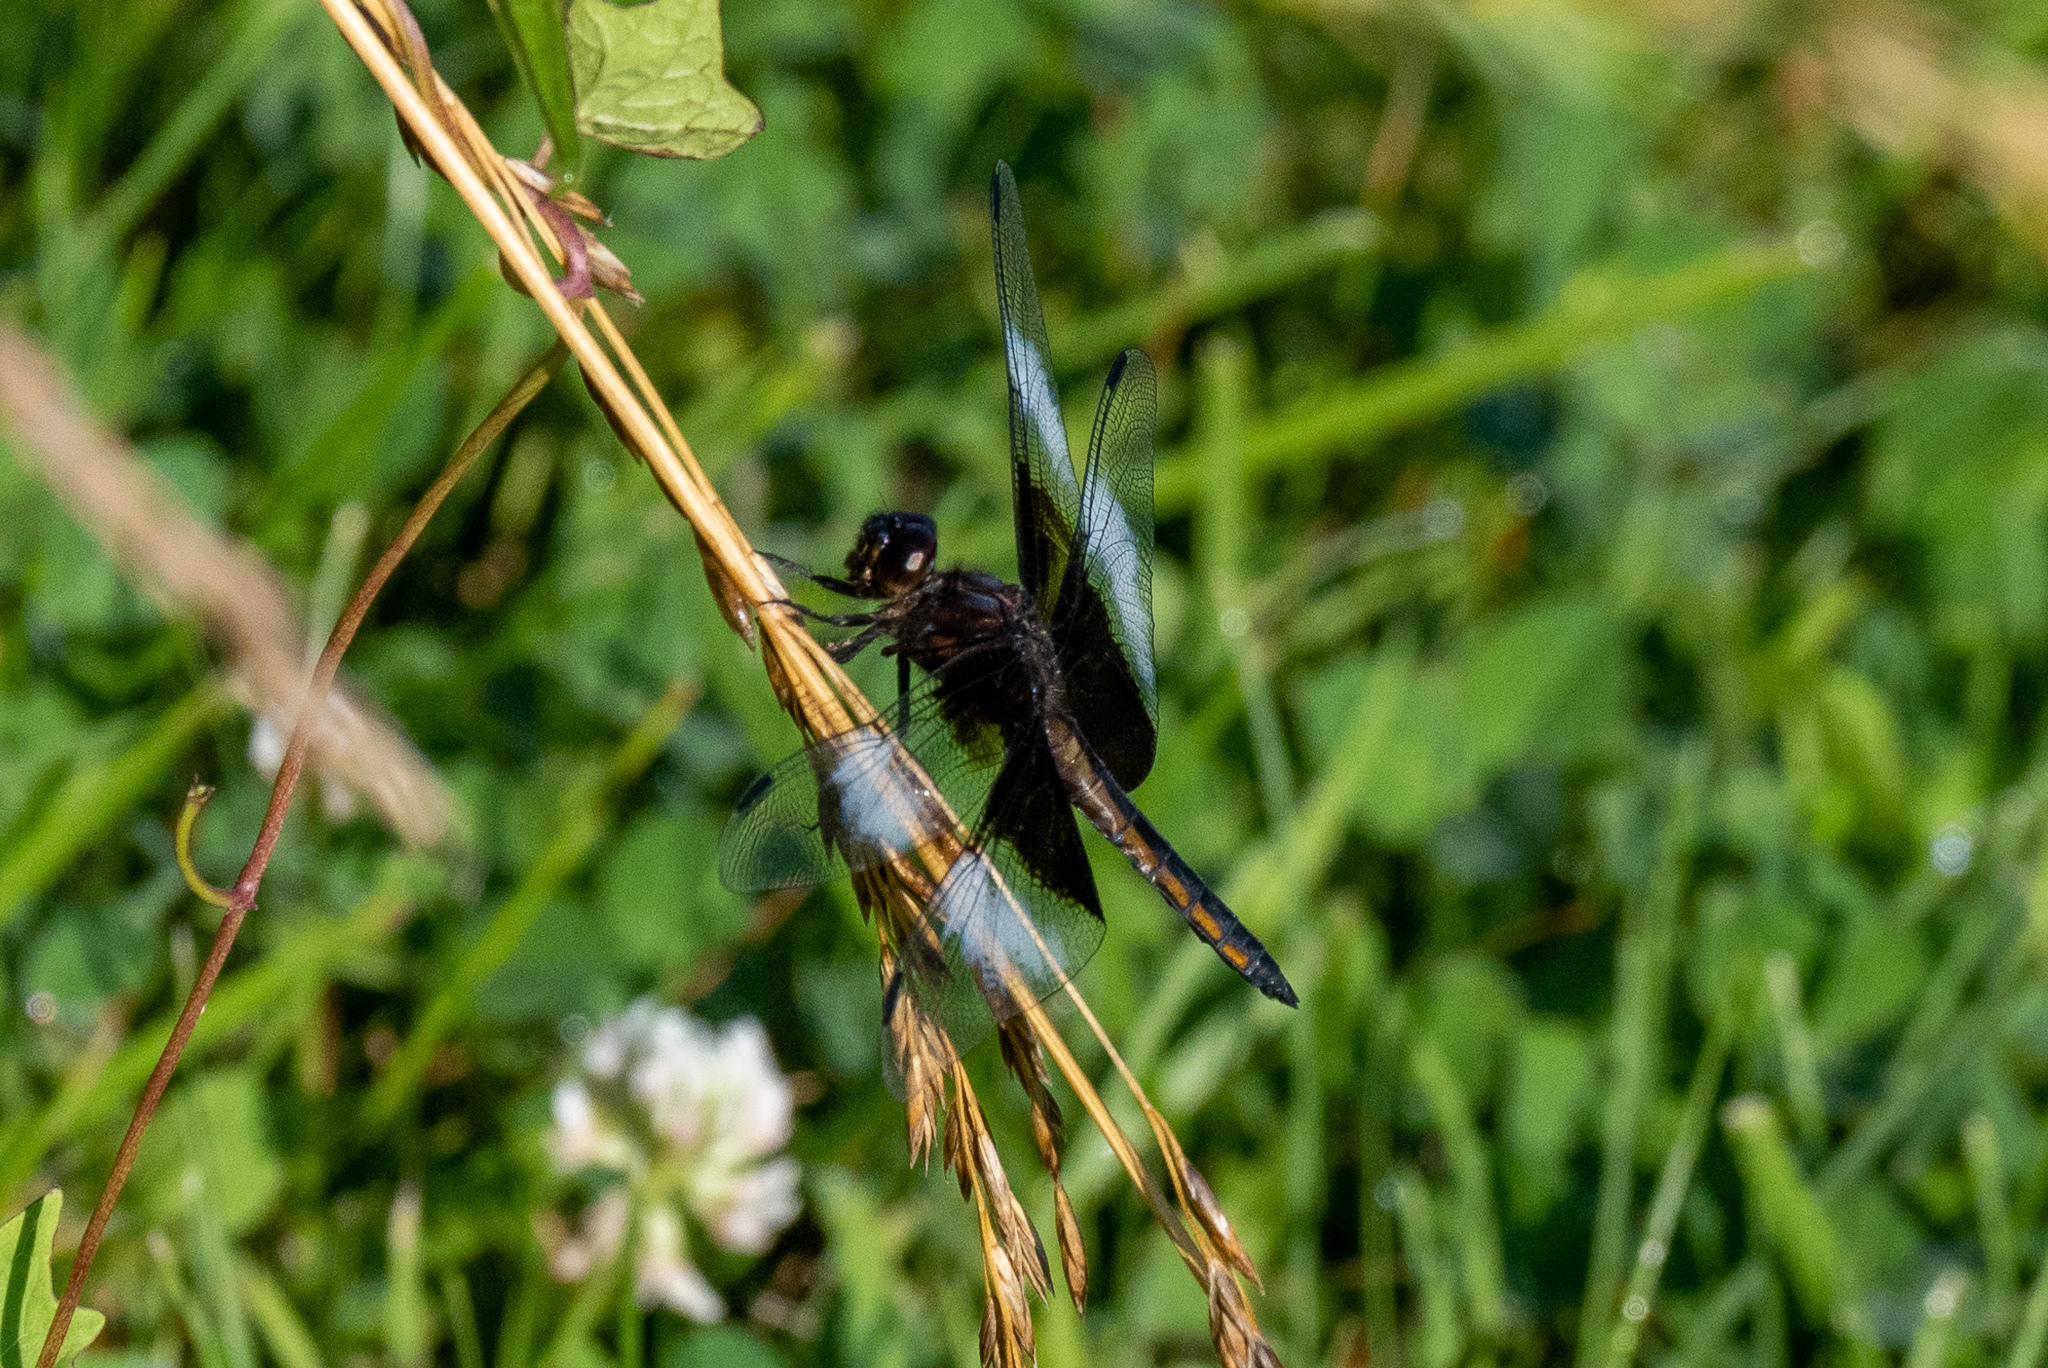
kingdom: Animalia
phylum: Arthropoda
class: Insecta
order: Odonata
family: Libellulidae
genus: Libellula
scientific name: Libellula luctuosa
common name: Widow skimmer
